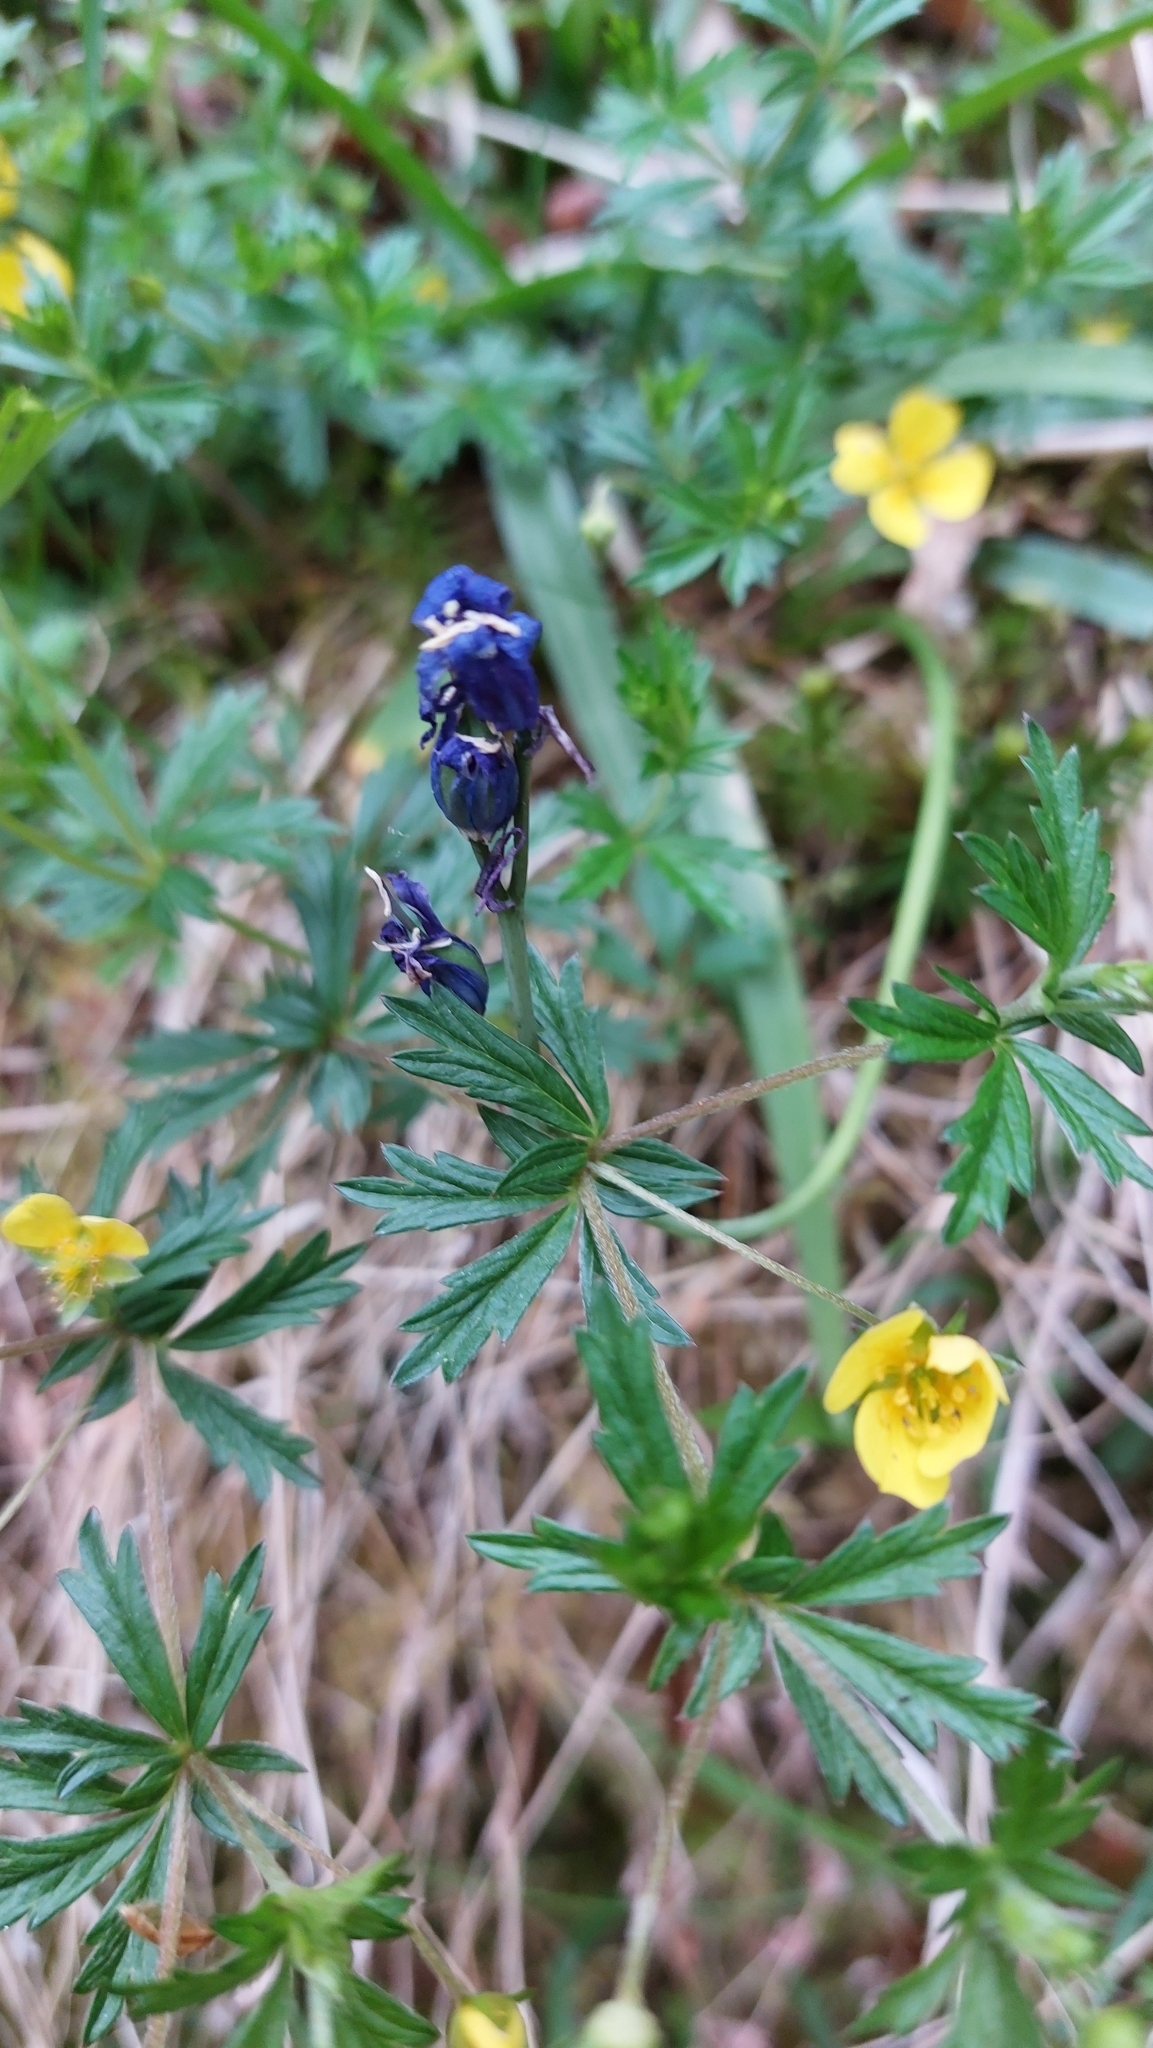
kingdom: Plantae
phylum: Tracheophyta
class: Magnoliopsida
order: Rosales
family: Rosaceae
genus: Potentilla
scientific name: Potentilla erecta
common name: Tormentil
